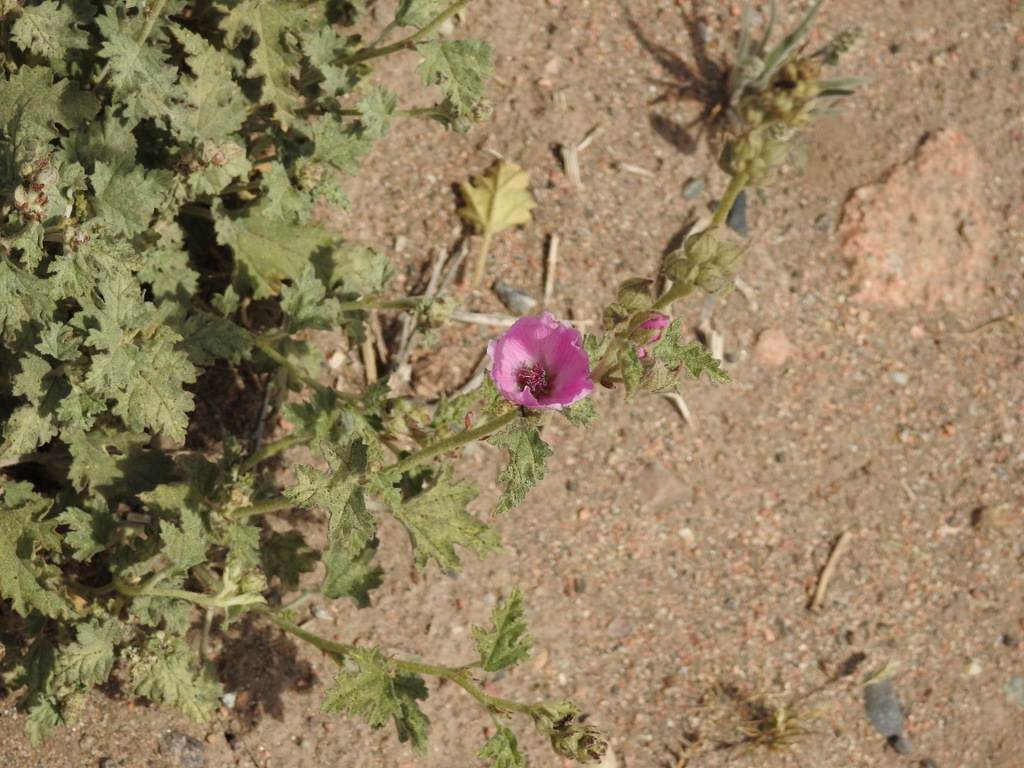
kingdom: Plantae
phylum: Tracheophyta
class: Magnoliopsida
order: Malvales
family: Malvaceae
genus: Sphaeralcea
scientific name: Sphaeralcea mendocina
